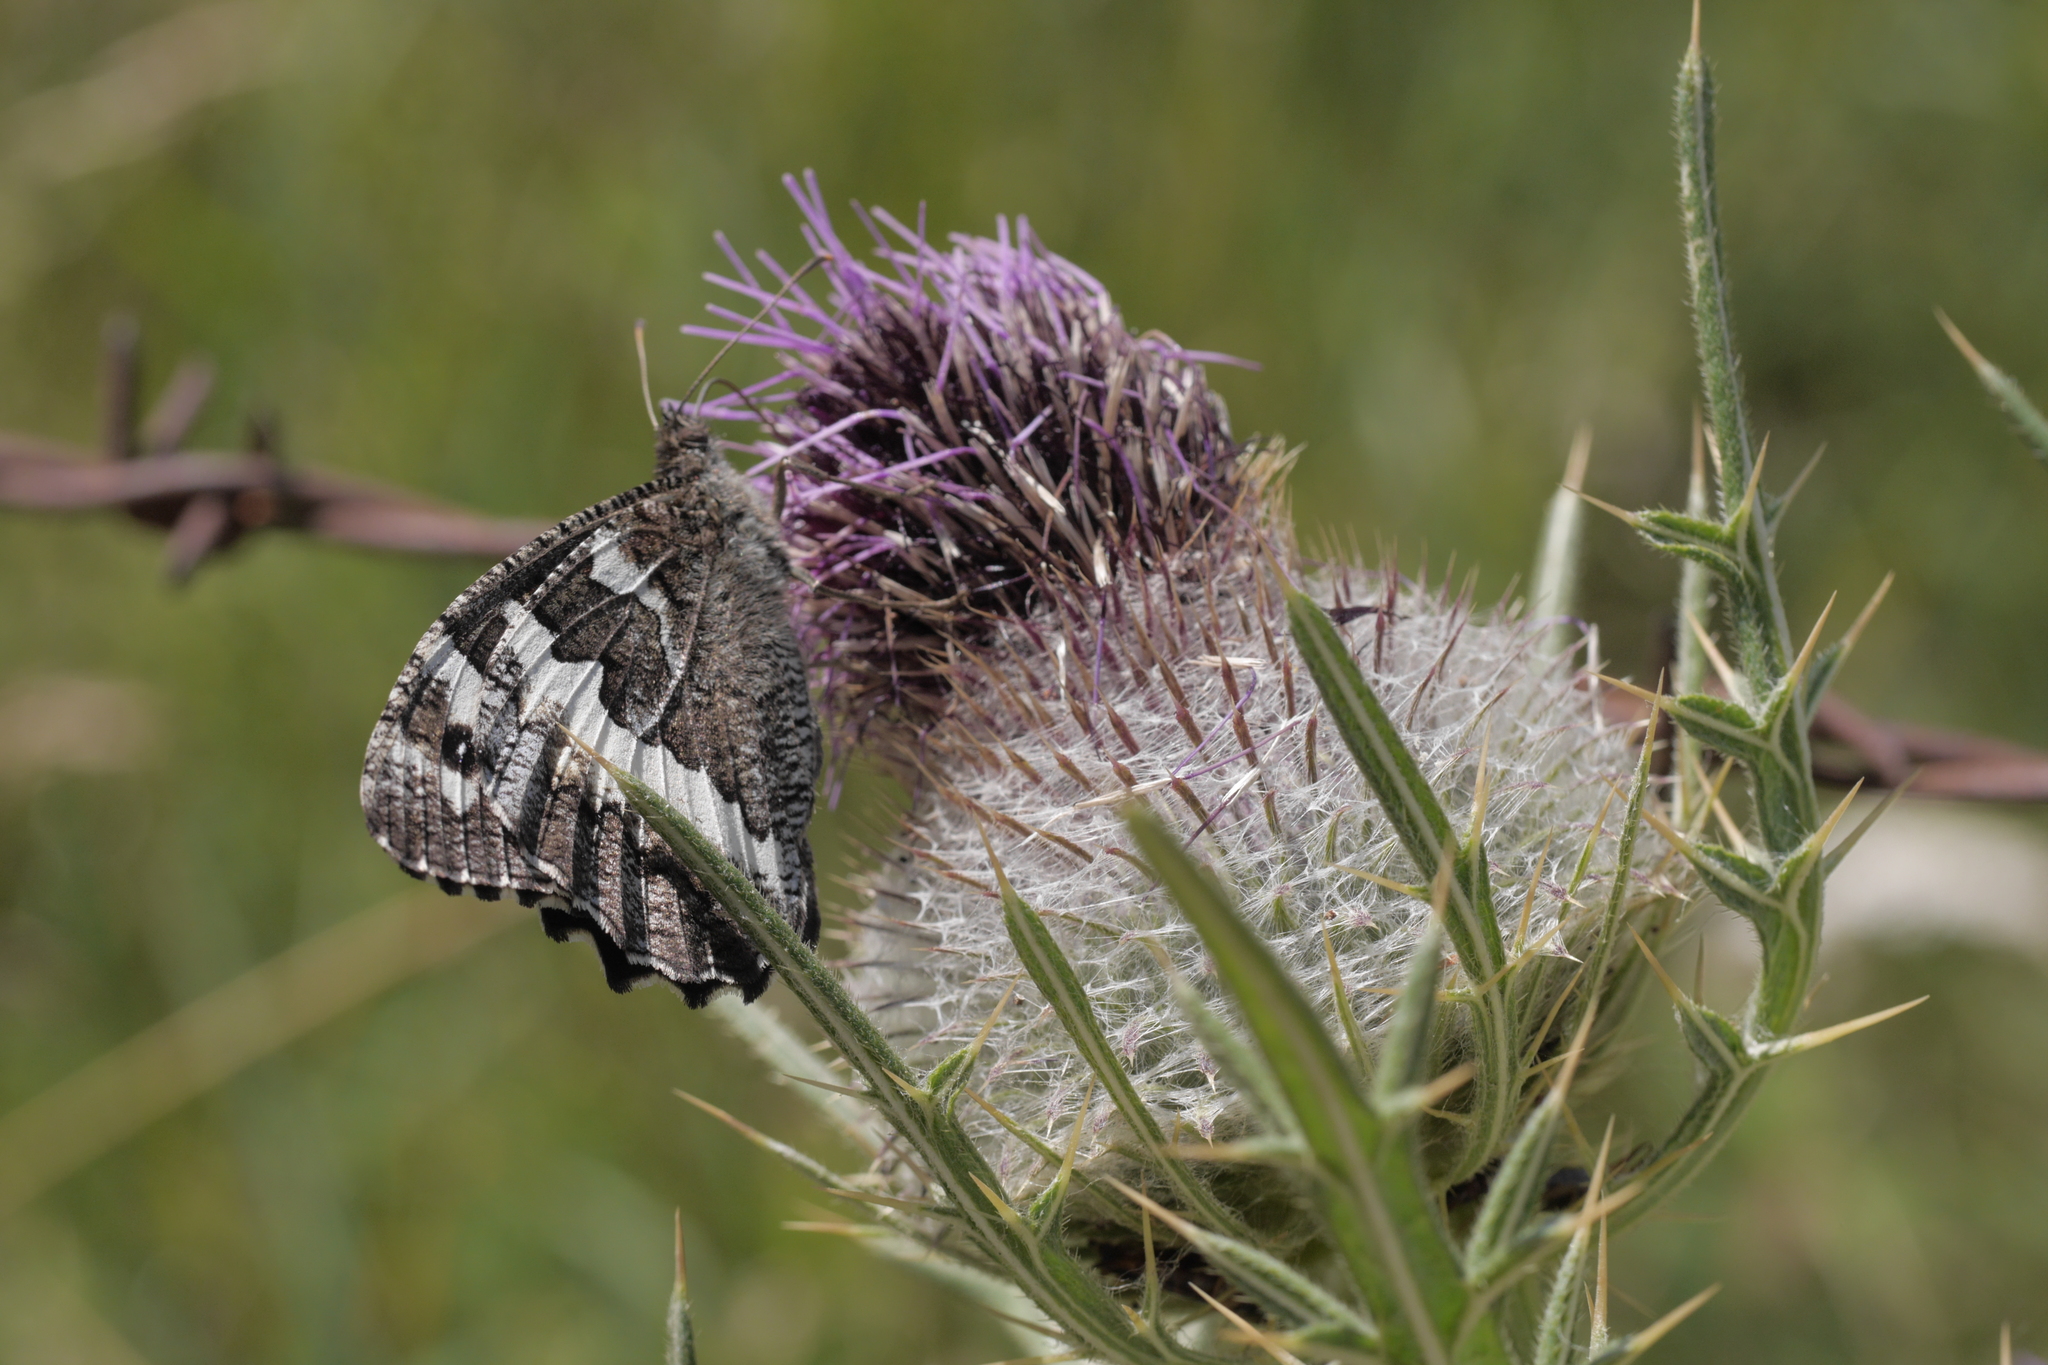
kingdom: Animalia
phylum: Arthropoda
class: Insecta
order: Lepidoptera
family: Lycaenidae
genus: Loweia
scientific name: Loweia tityrus
